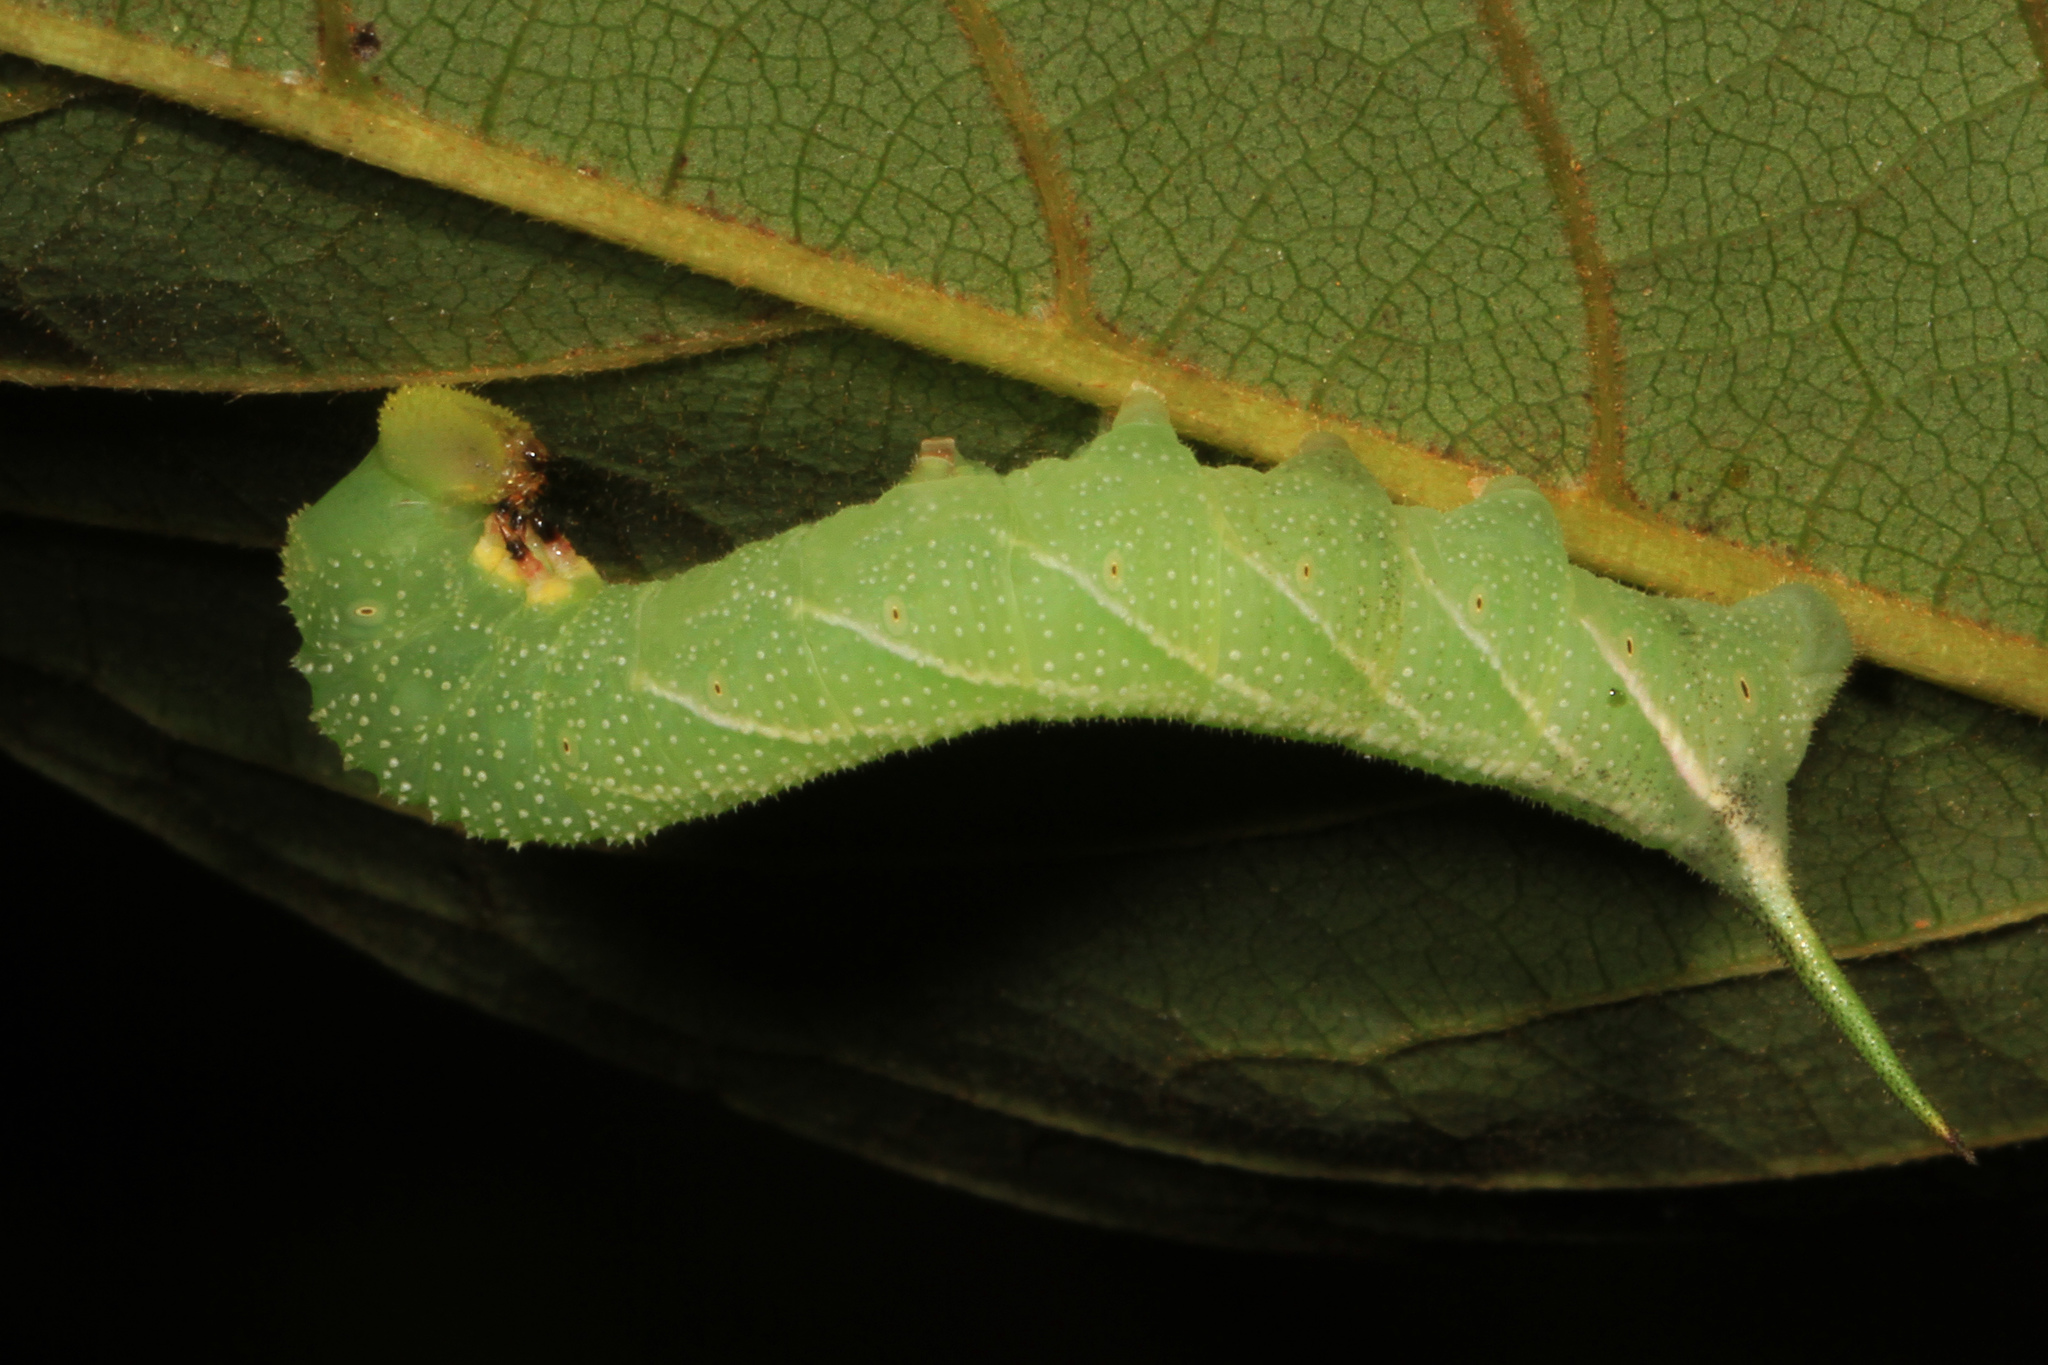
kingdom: Animalia
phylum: Arthropoda
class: Insecta
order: Lepidoptera
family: Sphingidae
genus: Dolba
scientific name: Dolba hyloeus
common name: Pawpaw sphinx
